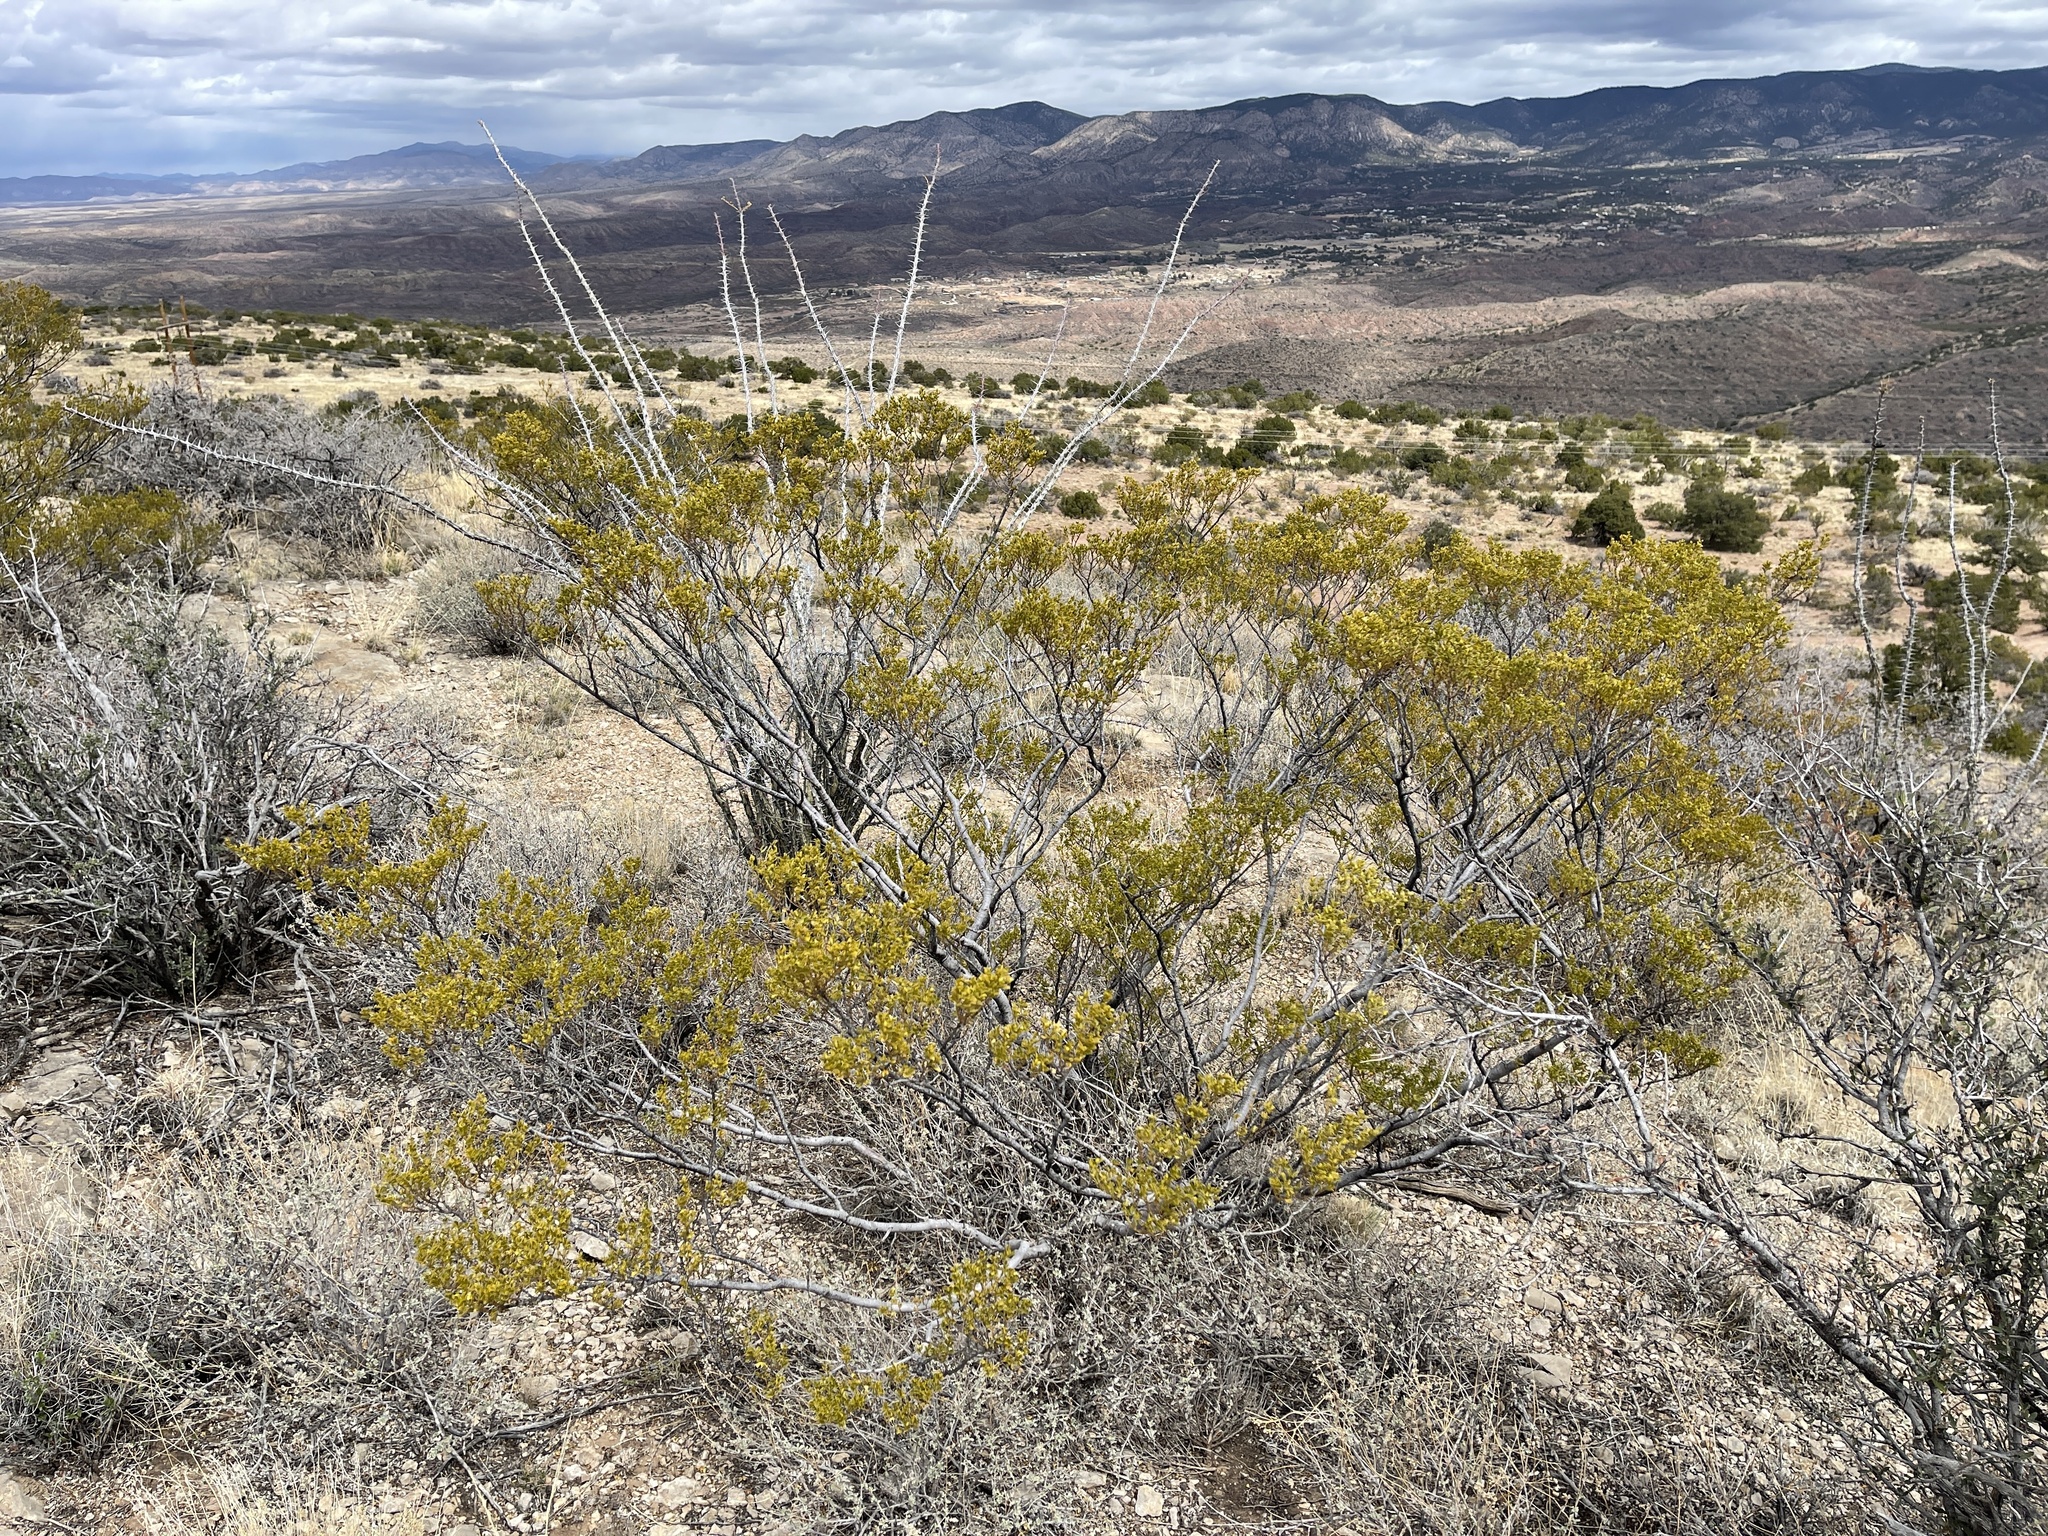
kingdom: Plantae
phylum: Tracheophyta
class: Magnoliopsida
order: Zygophyllales
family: Zygophyllaceae
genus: Larrea
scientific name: Larrea tridentata
